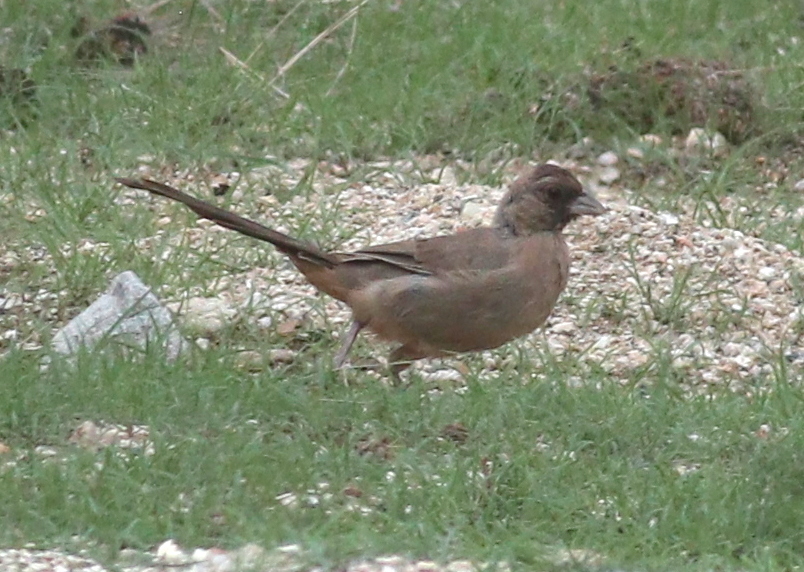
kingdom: Animalia
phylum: Chordata
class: Aves
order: Passeriformes
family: Passerellidae
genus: Melozone
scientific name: Melozone aberti
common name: Abert's towhee
